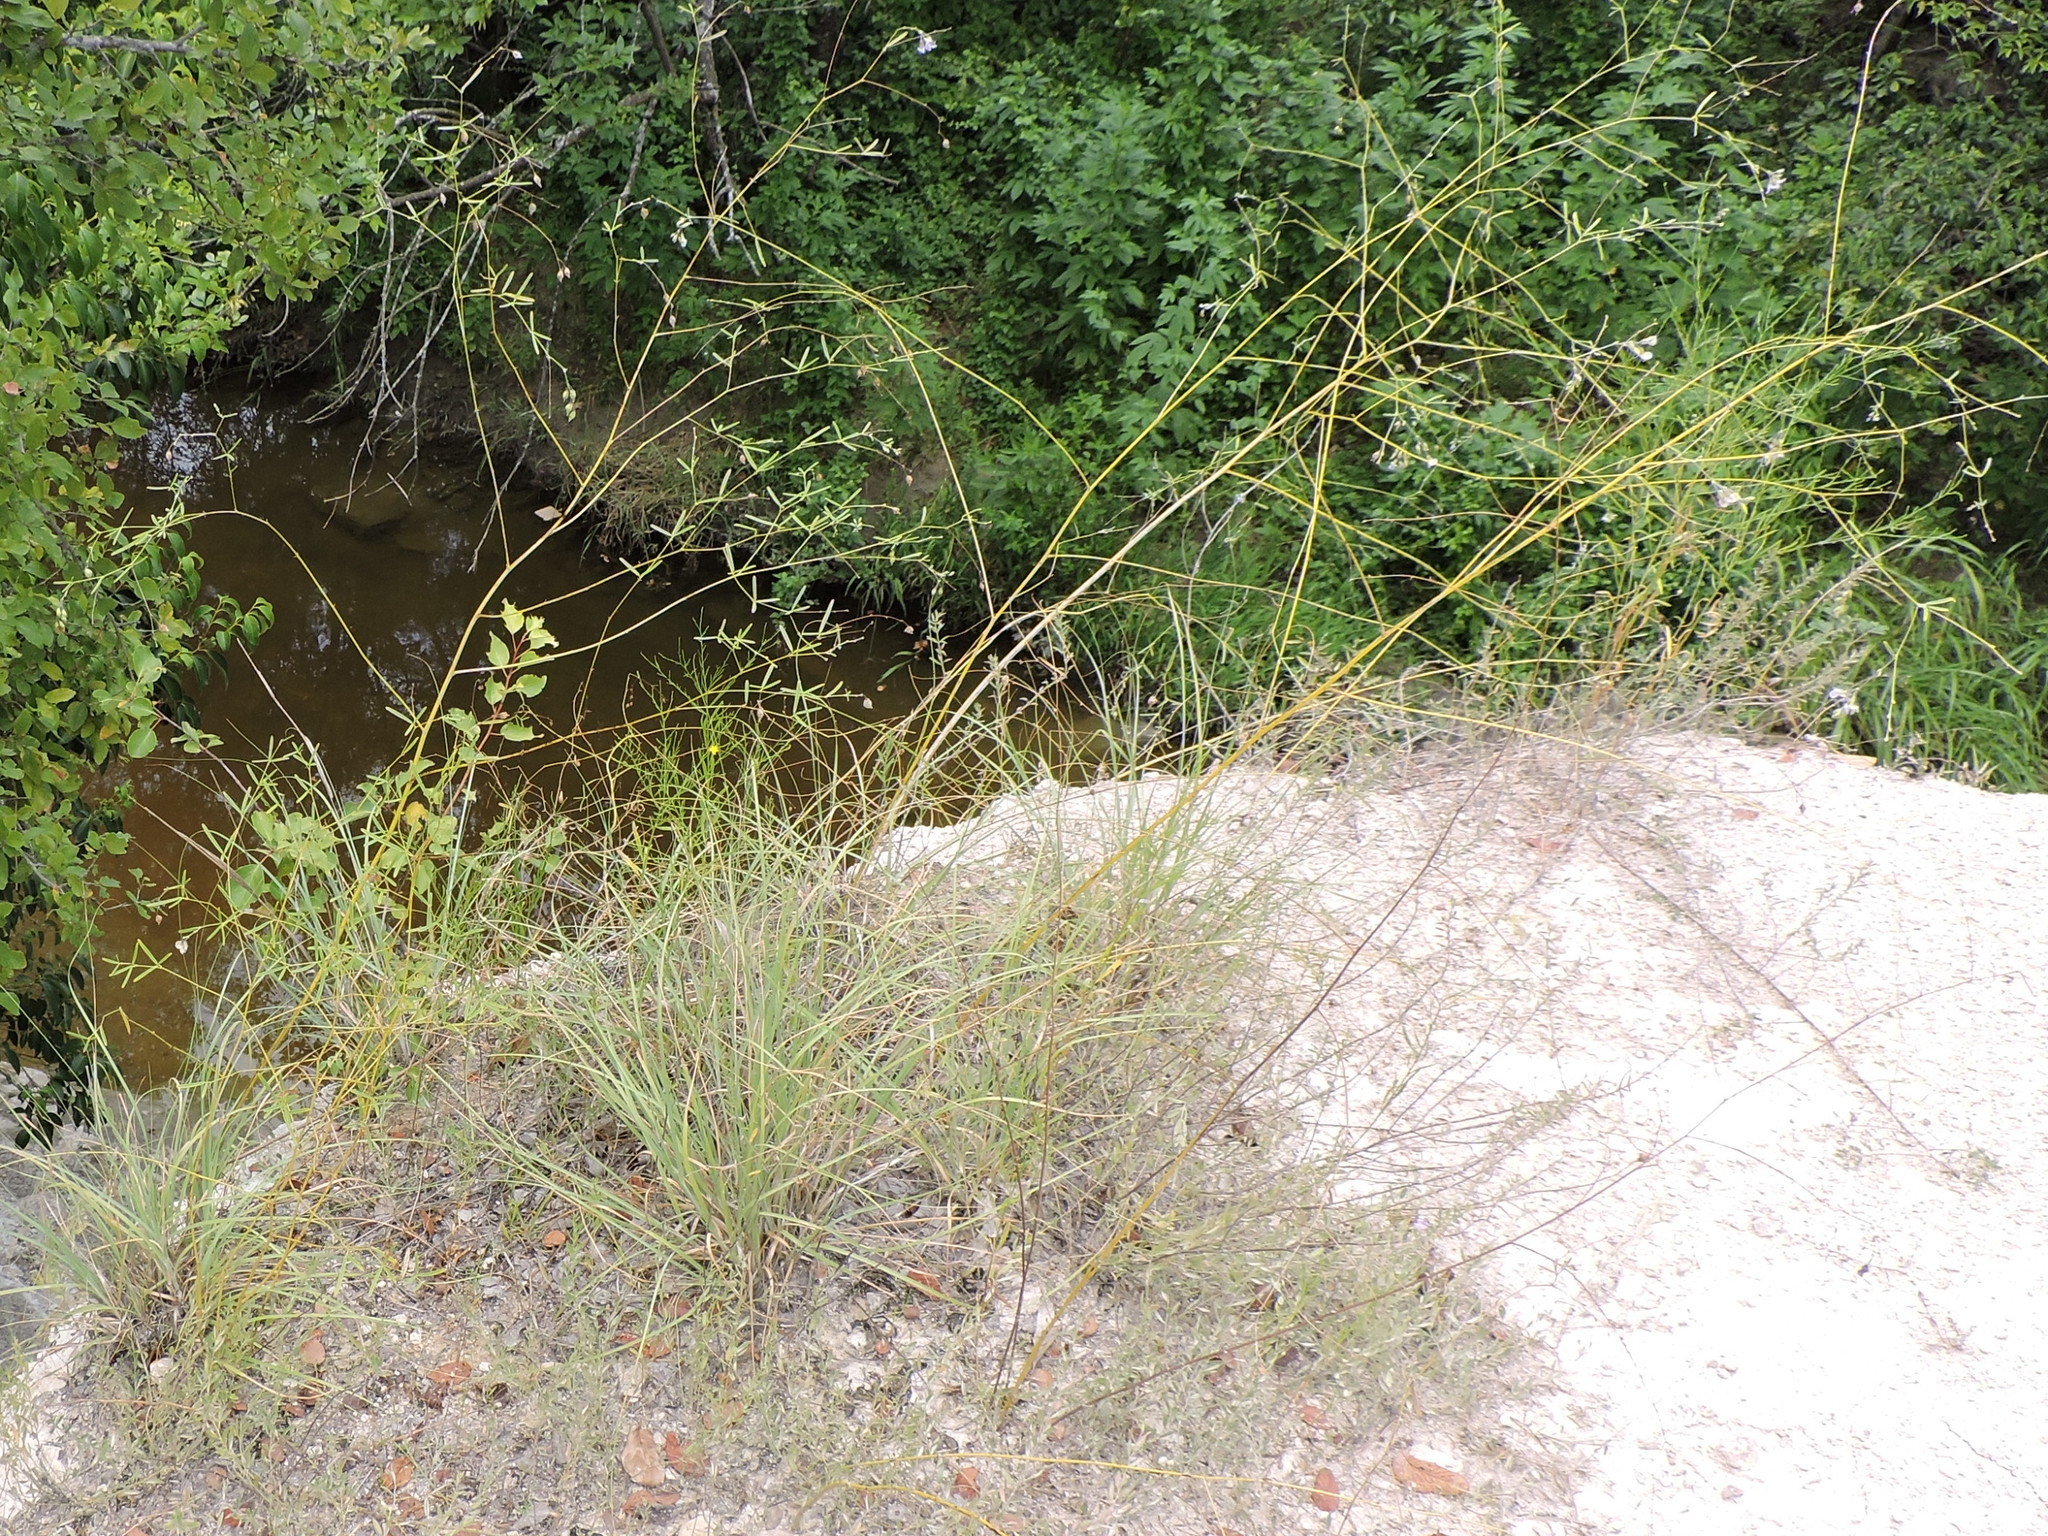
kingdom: Plantae
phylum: Tracheophyta
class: Magnoliopsida
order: Fabales
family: Fabaceae
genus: Pediomelum
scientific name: Pediomelum linearifolium
